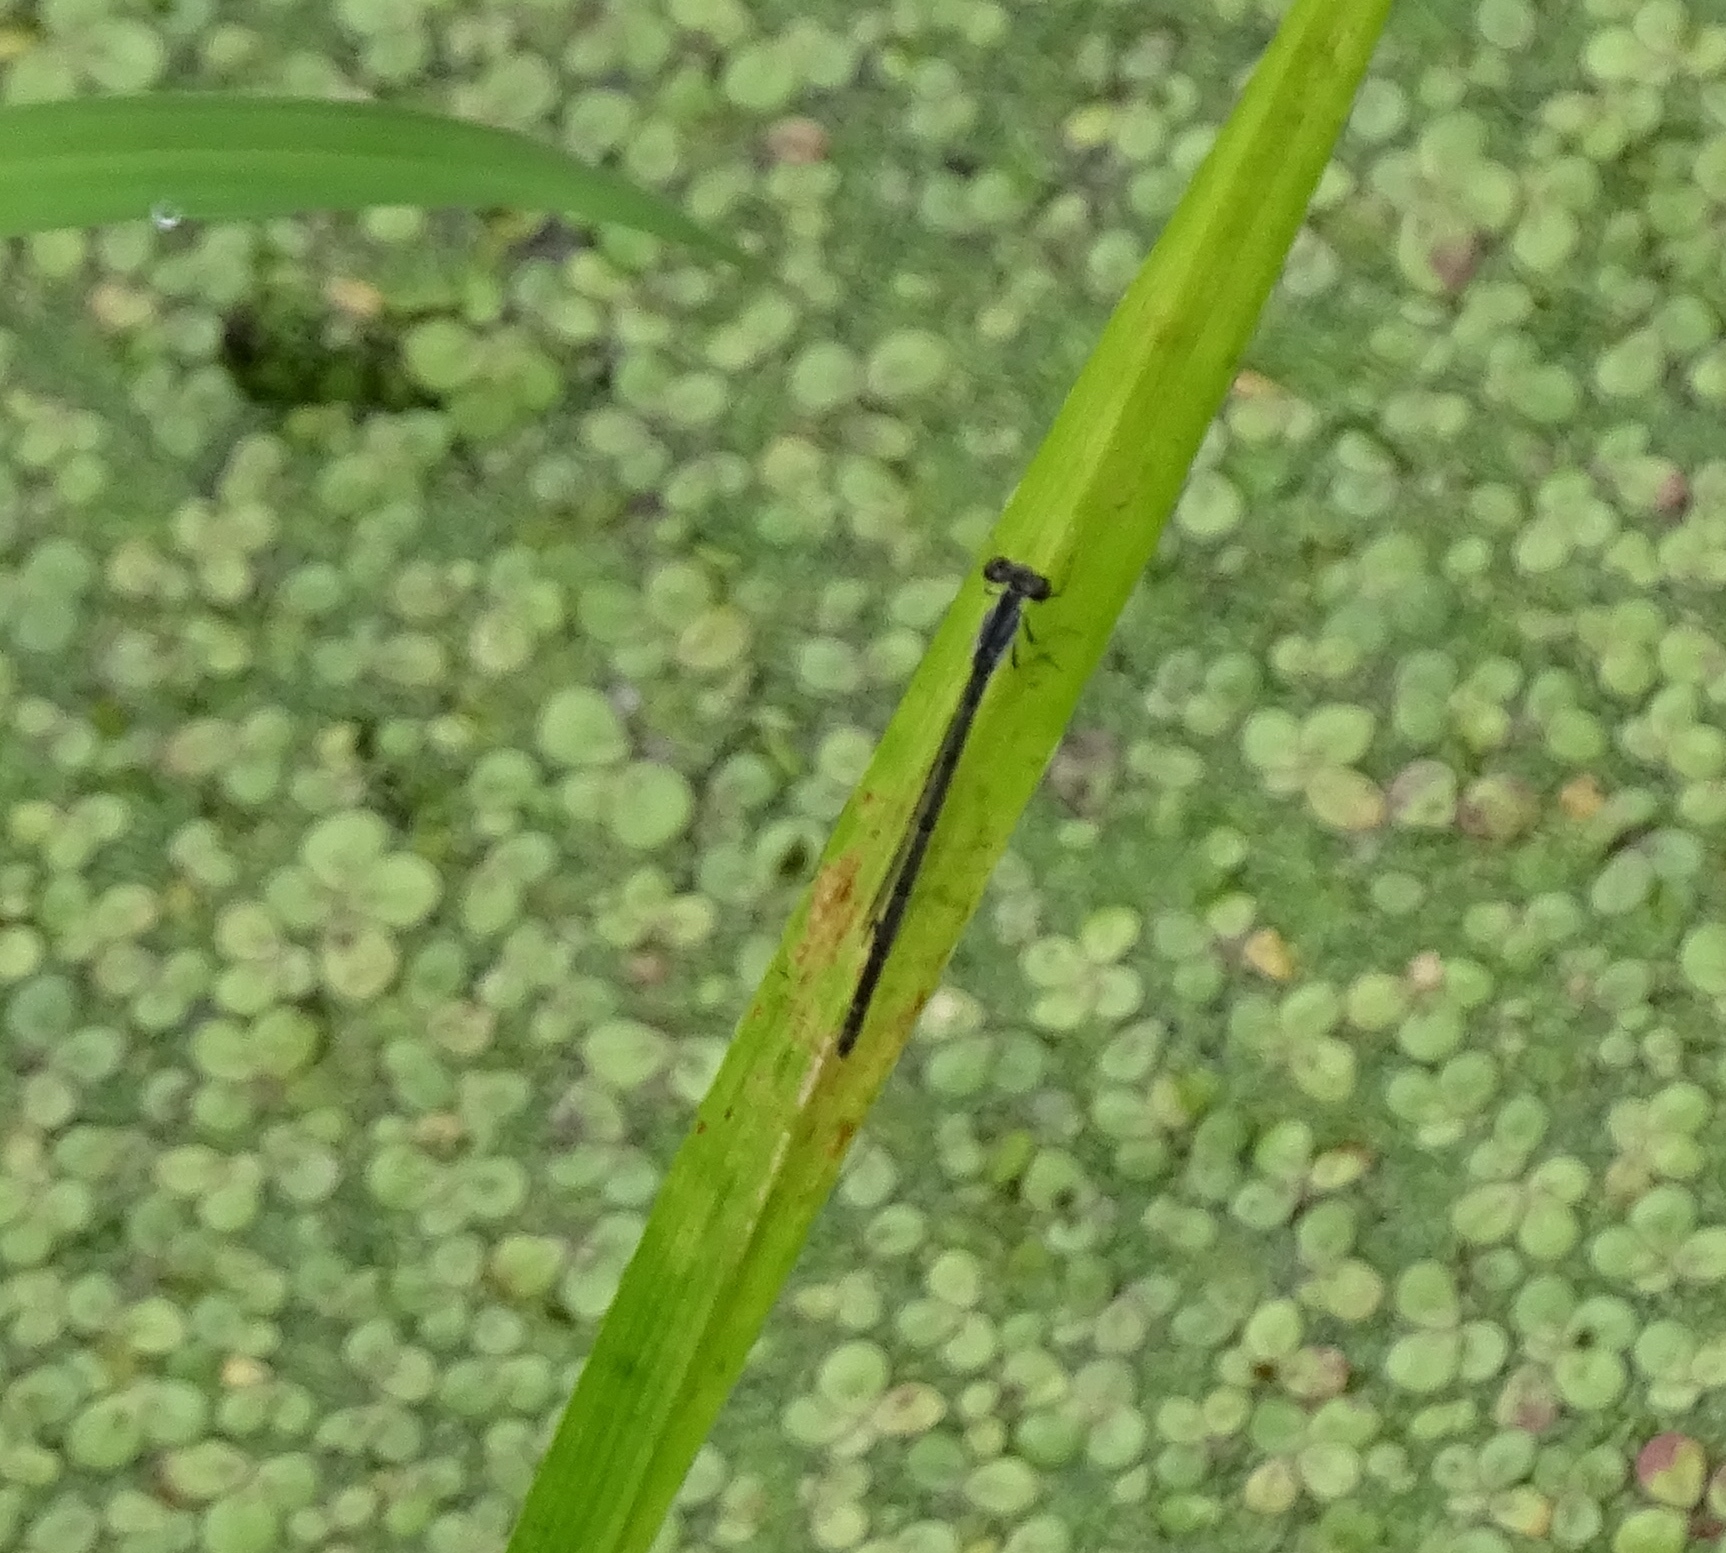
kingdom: Animalia
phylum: Arthropoda
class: Insecta
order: Odonata
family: Coenagrionidae
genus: Ischnura
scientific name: Ischnura posita
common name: Fragile forktail
